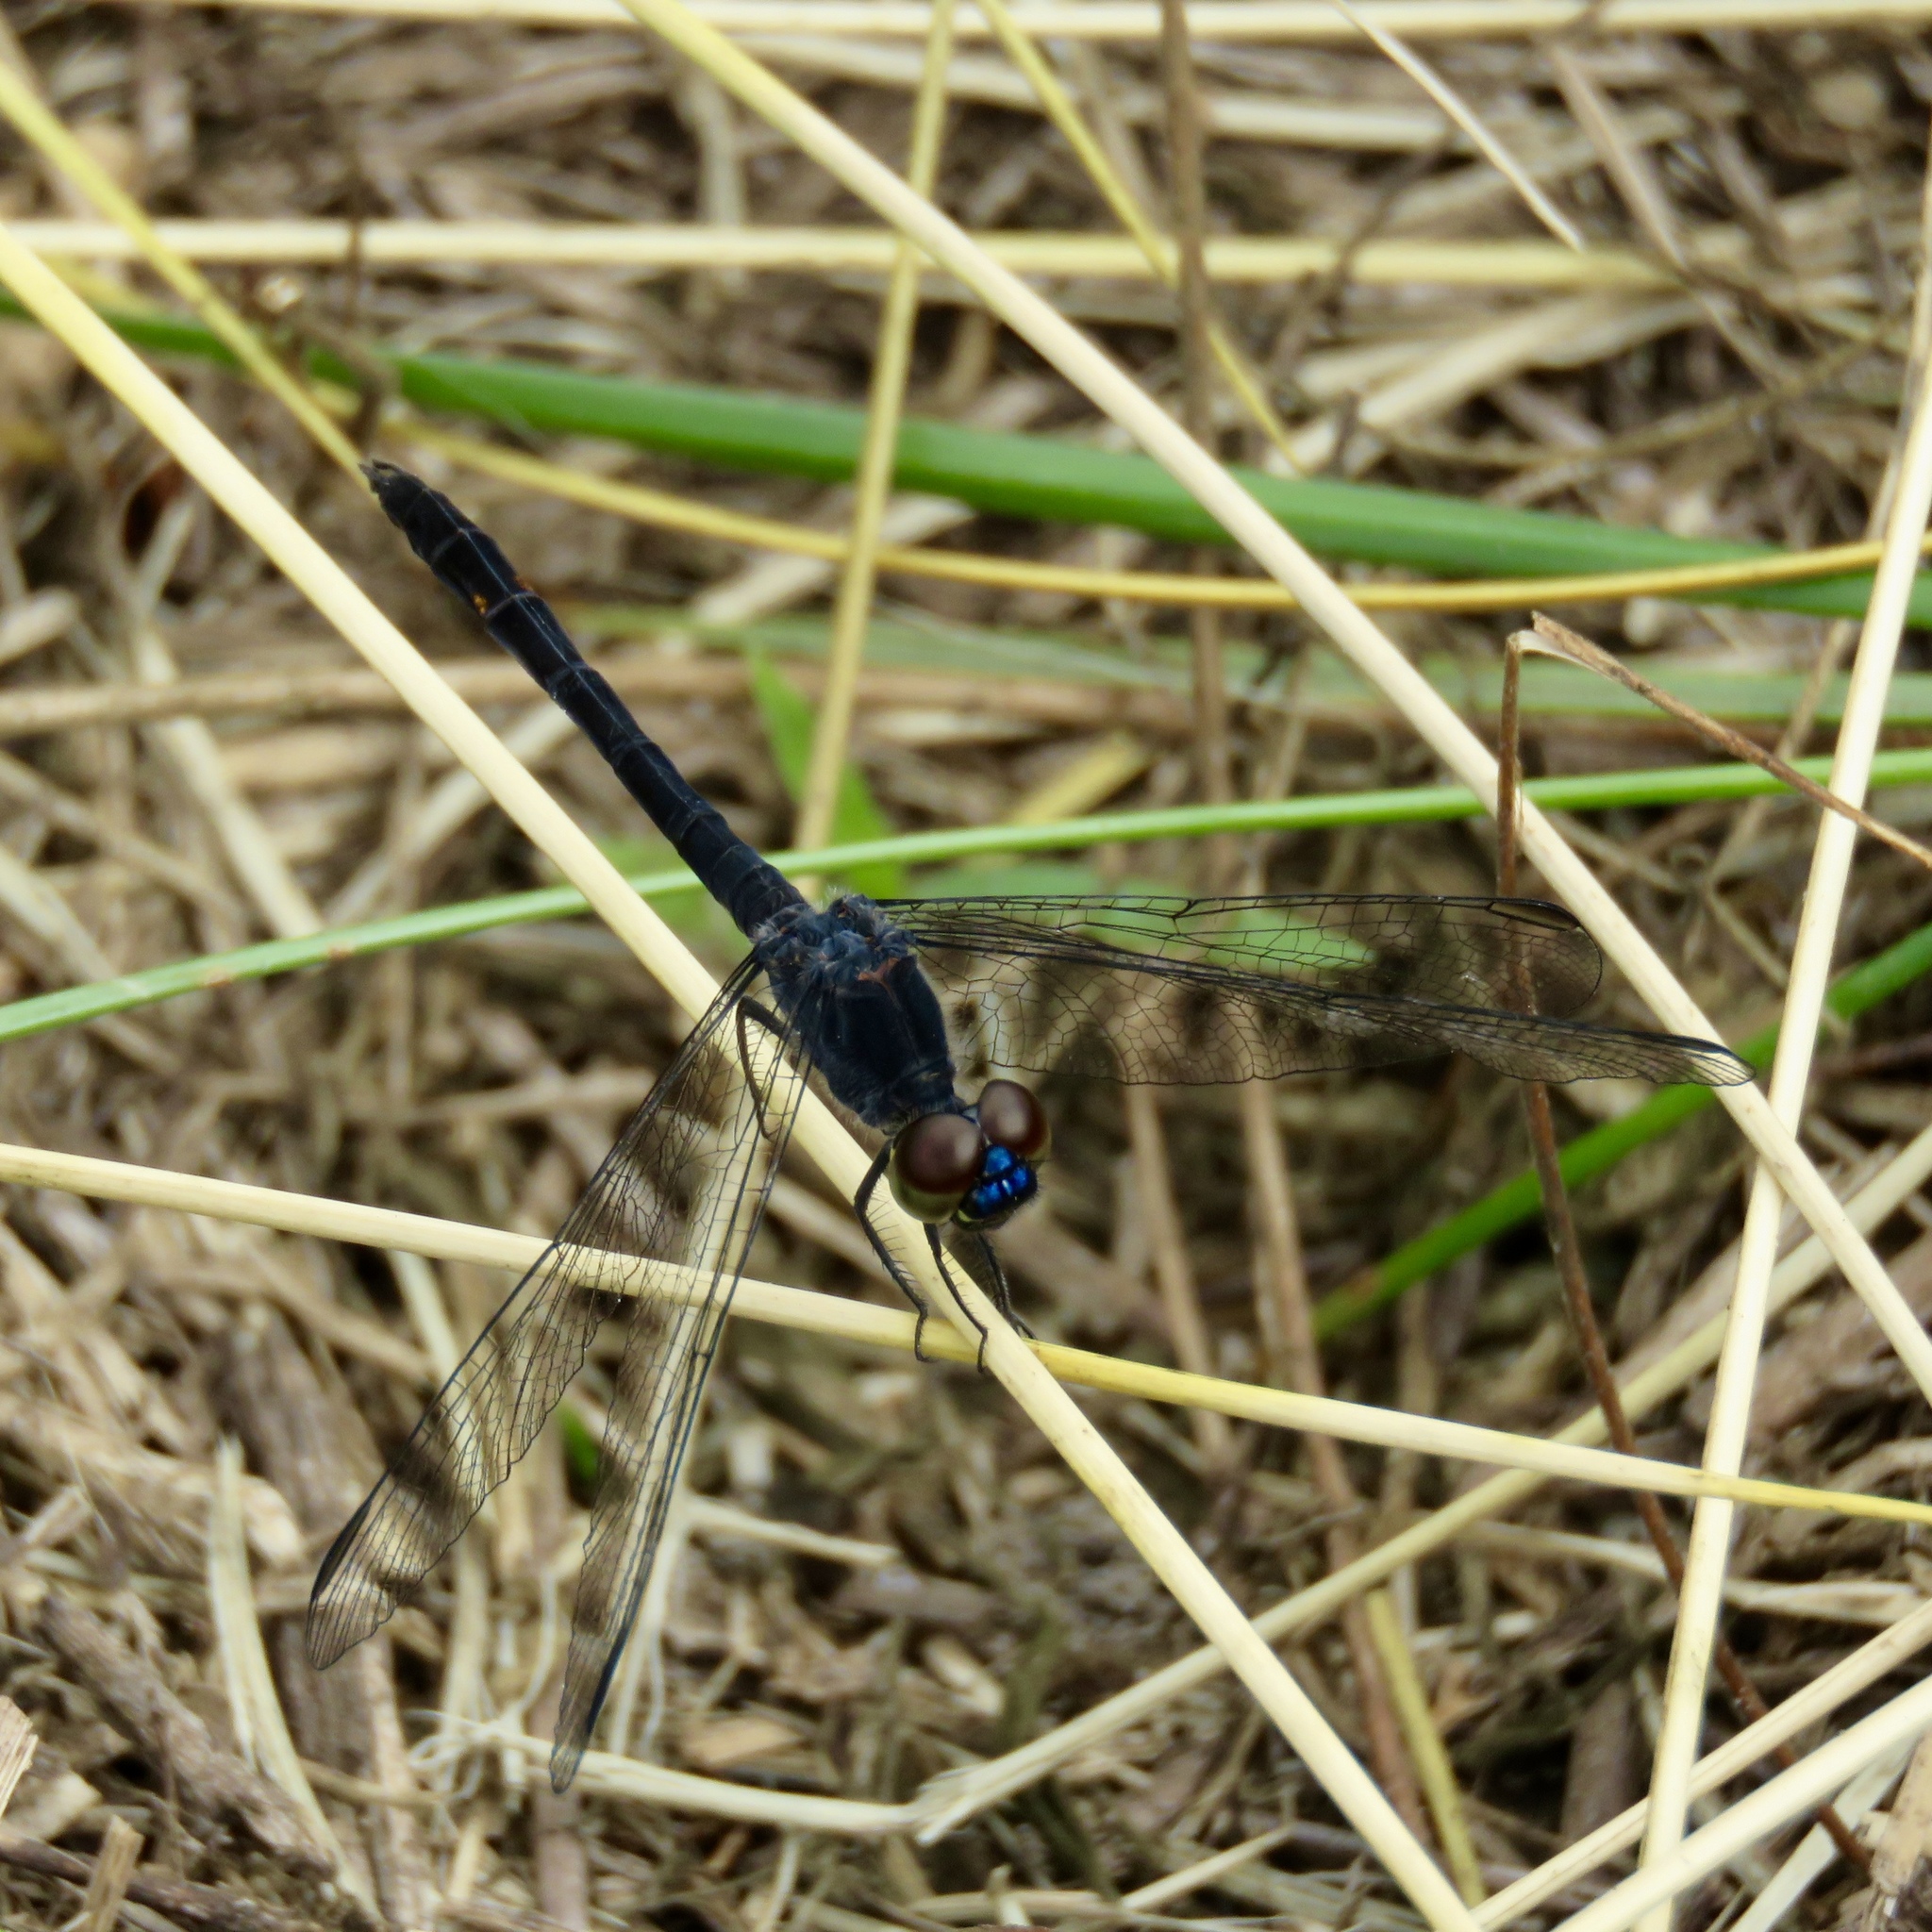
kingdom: Animalia
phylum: Arthropoda
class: Insecta
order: Odonata
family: Libellulidae
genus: Erythrodiplax
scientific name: Erythrodiplax berenice
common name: Seaside dragonlet
